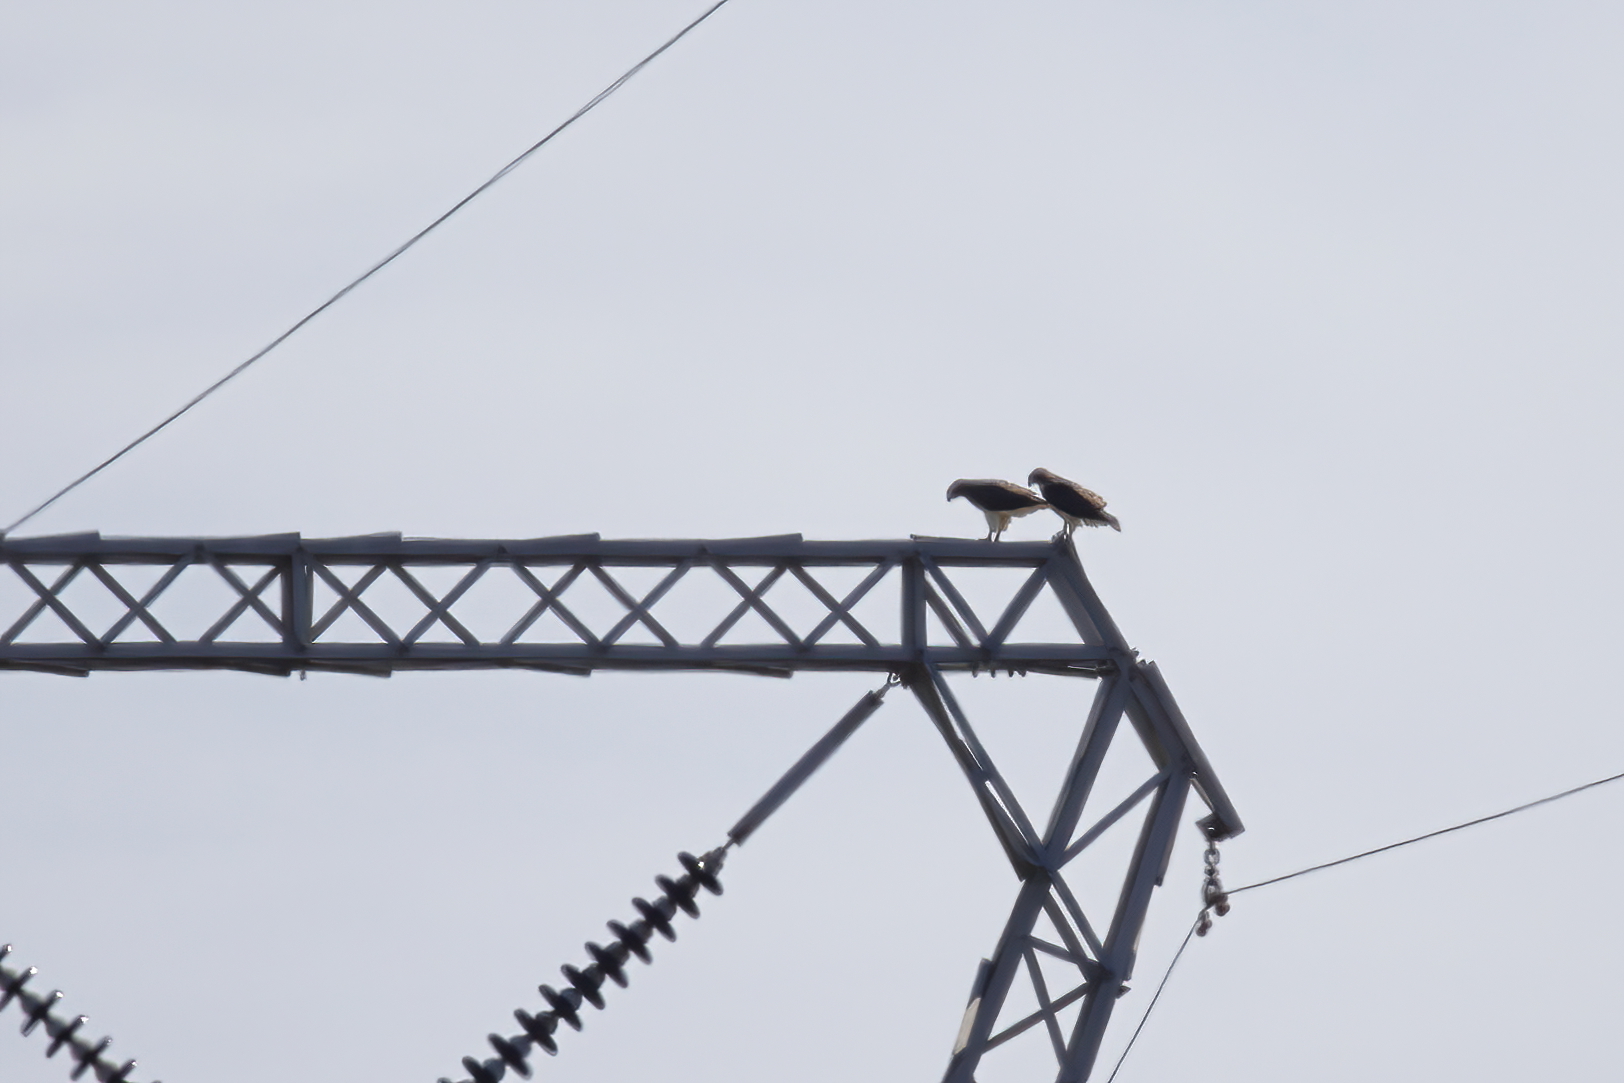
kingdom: Animalia
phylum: Chordata
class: Aves
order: Accipitriformes
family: Accipitridae
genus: Buteo
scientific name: Buteo jamaicensis
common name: Red-tailed hawk
